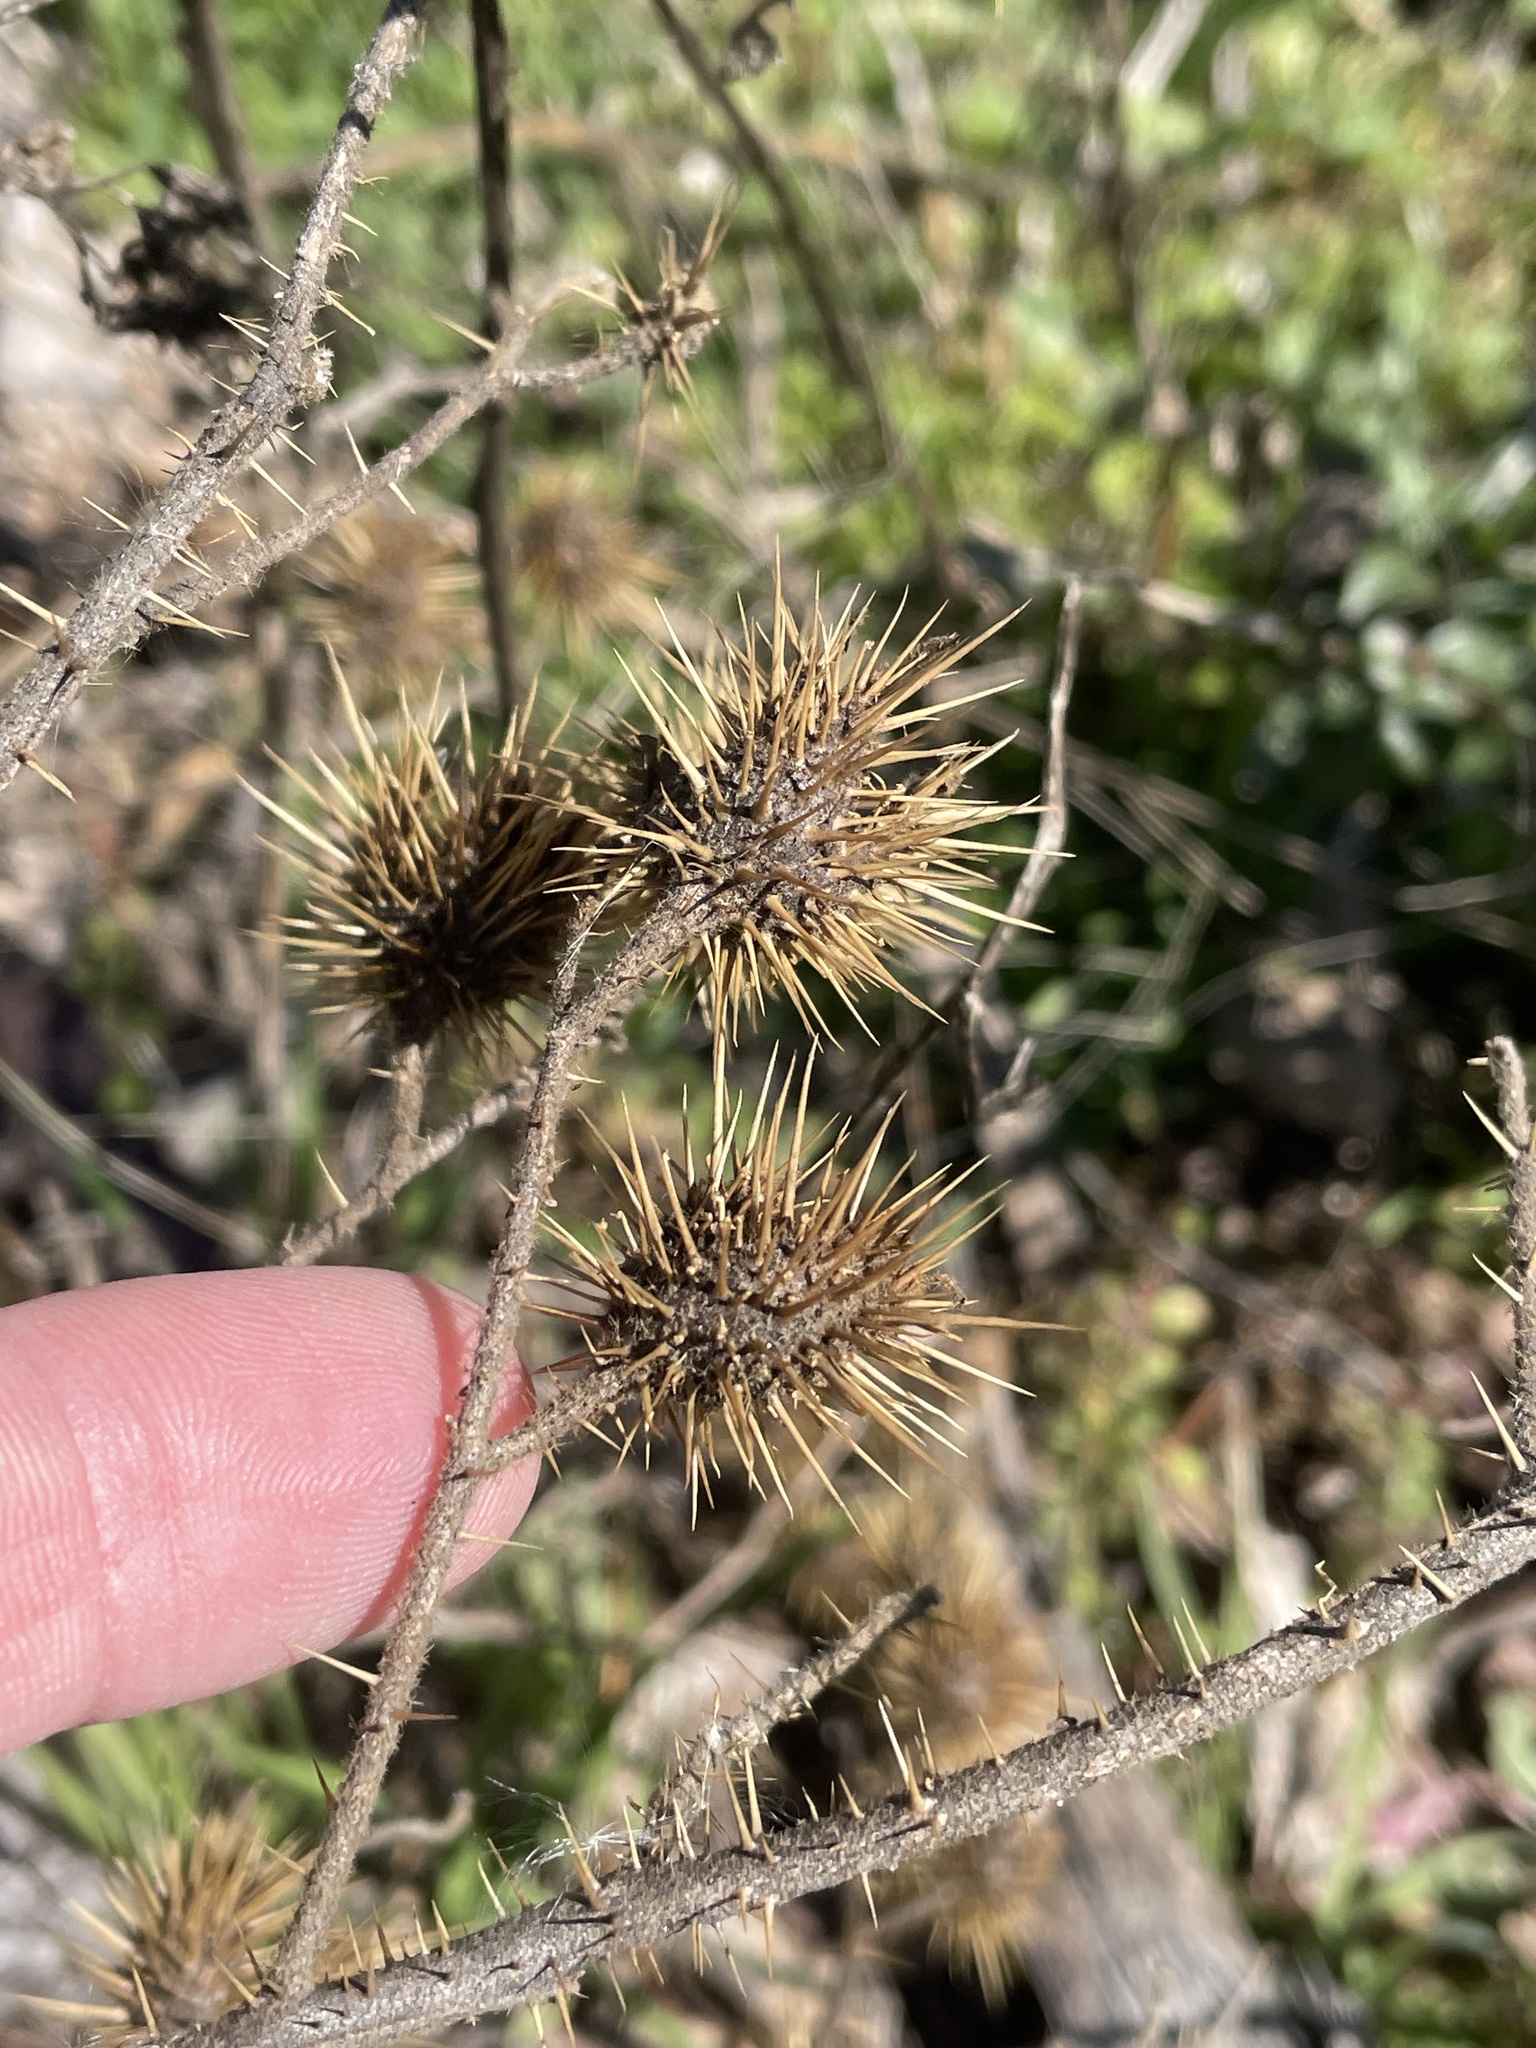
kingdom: Plantae
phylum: Tracheophyta
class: Magnoliopsida
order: Solanales
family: Solanaceae
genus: Solanum
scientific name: Solanum angustifolium
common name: Buffalobur nightshade
